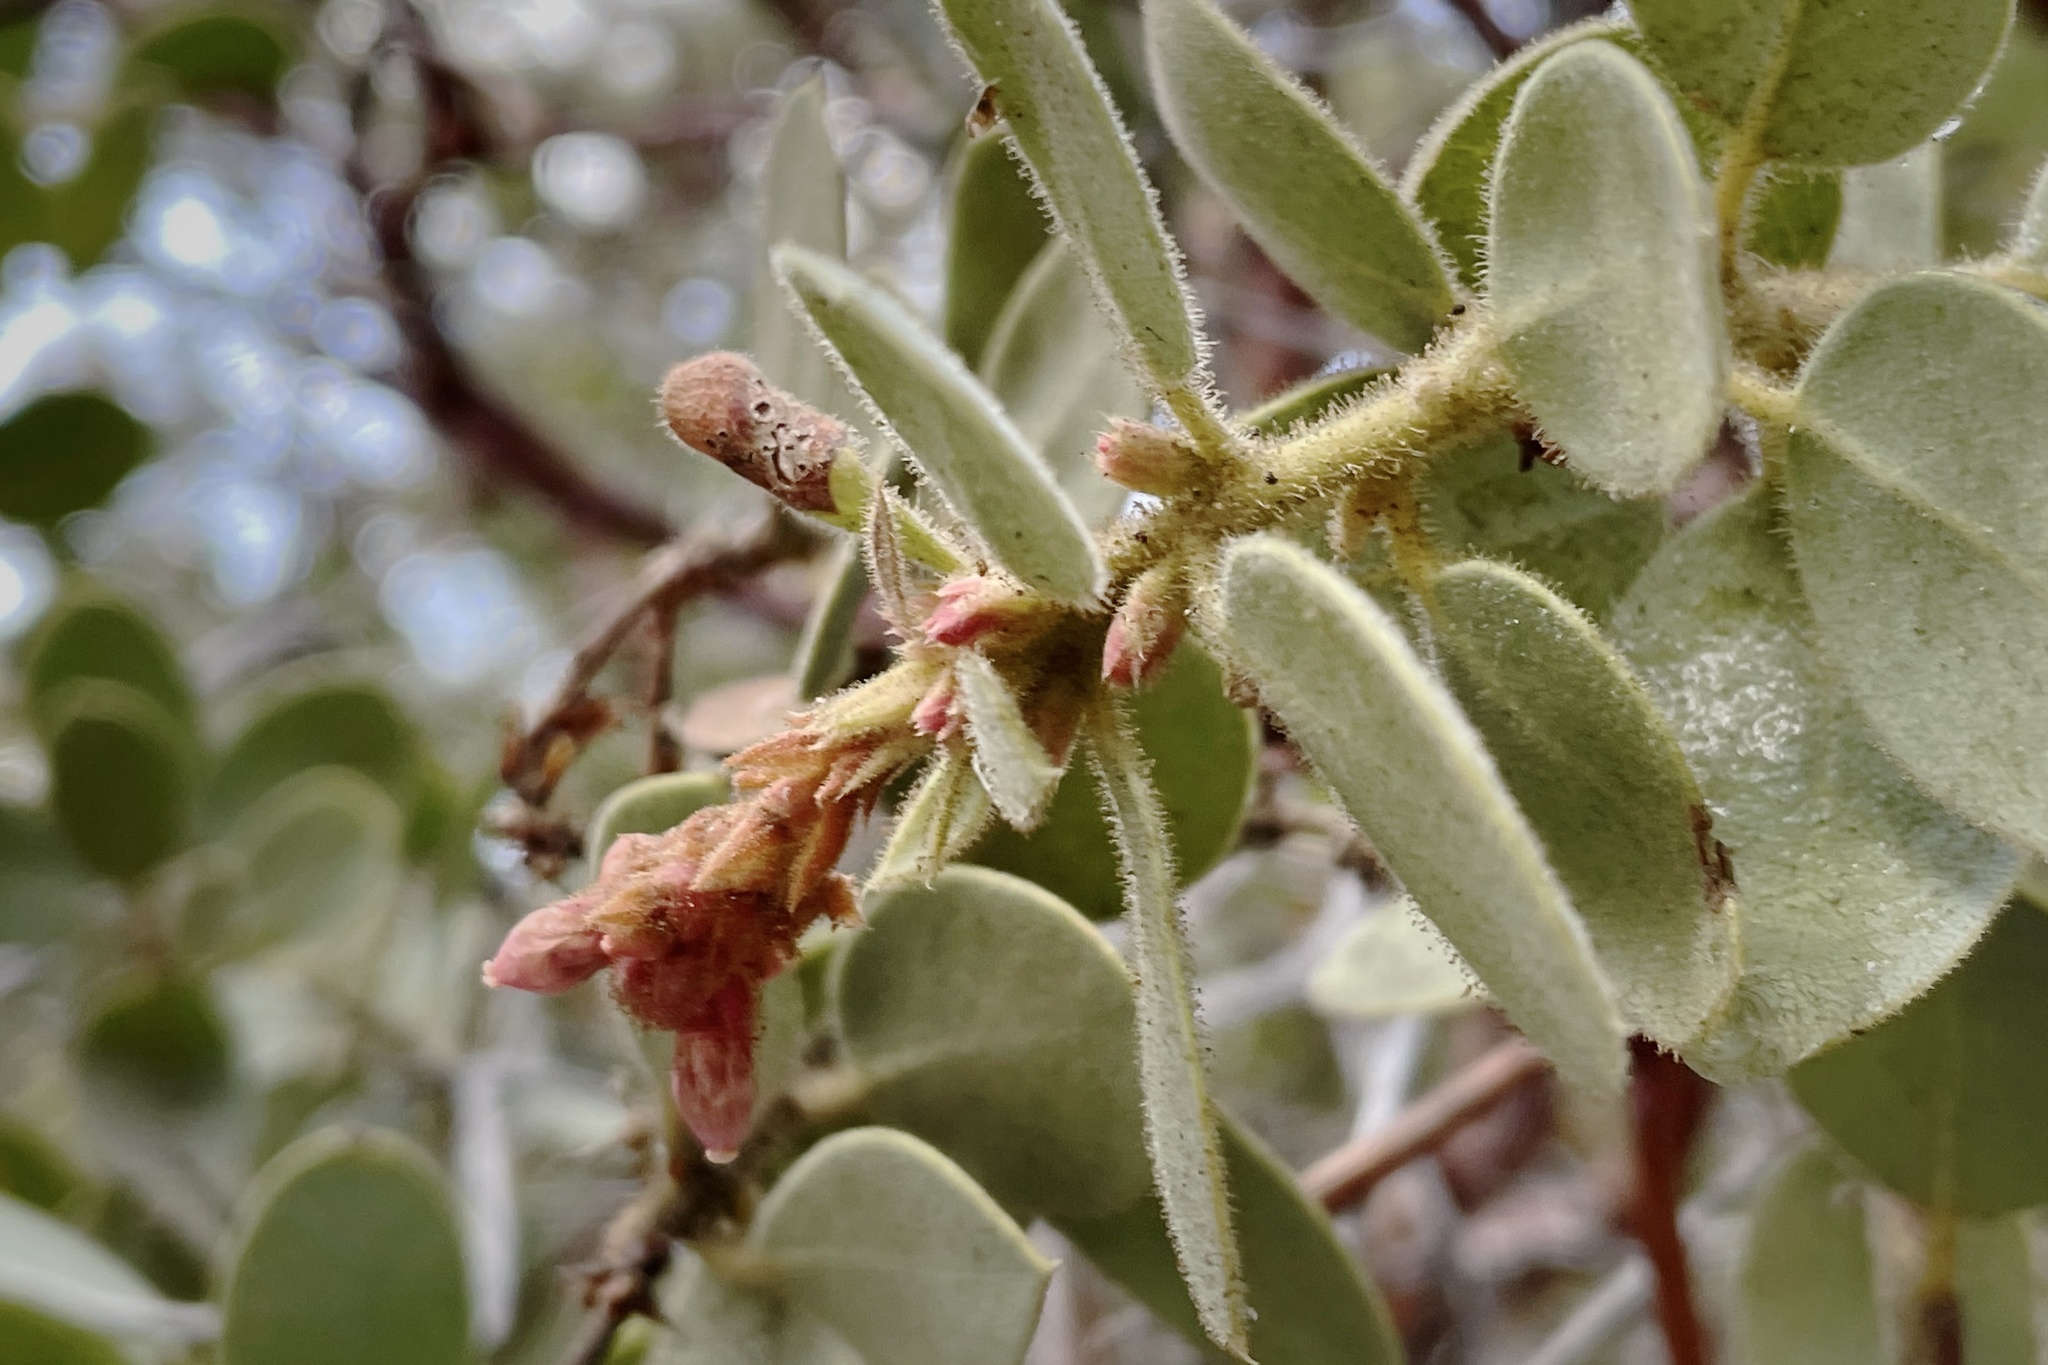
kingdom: Plantae
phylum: Tracheophyta
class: Magnoliopsida
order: Ericales
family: Ericaceae
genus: Arctostaphylos
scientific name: Arctostaphylos pringlei
